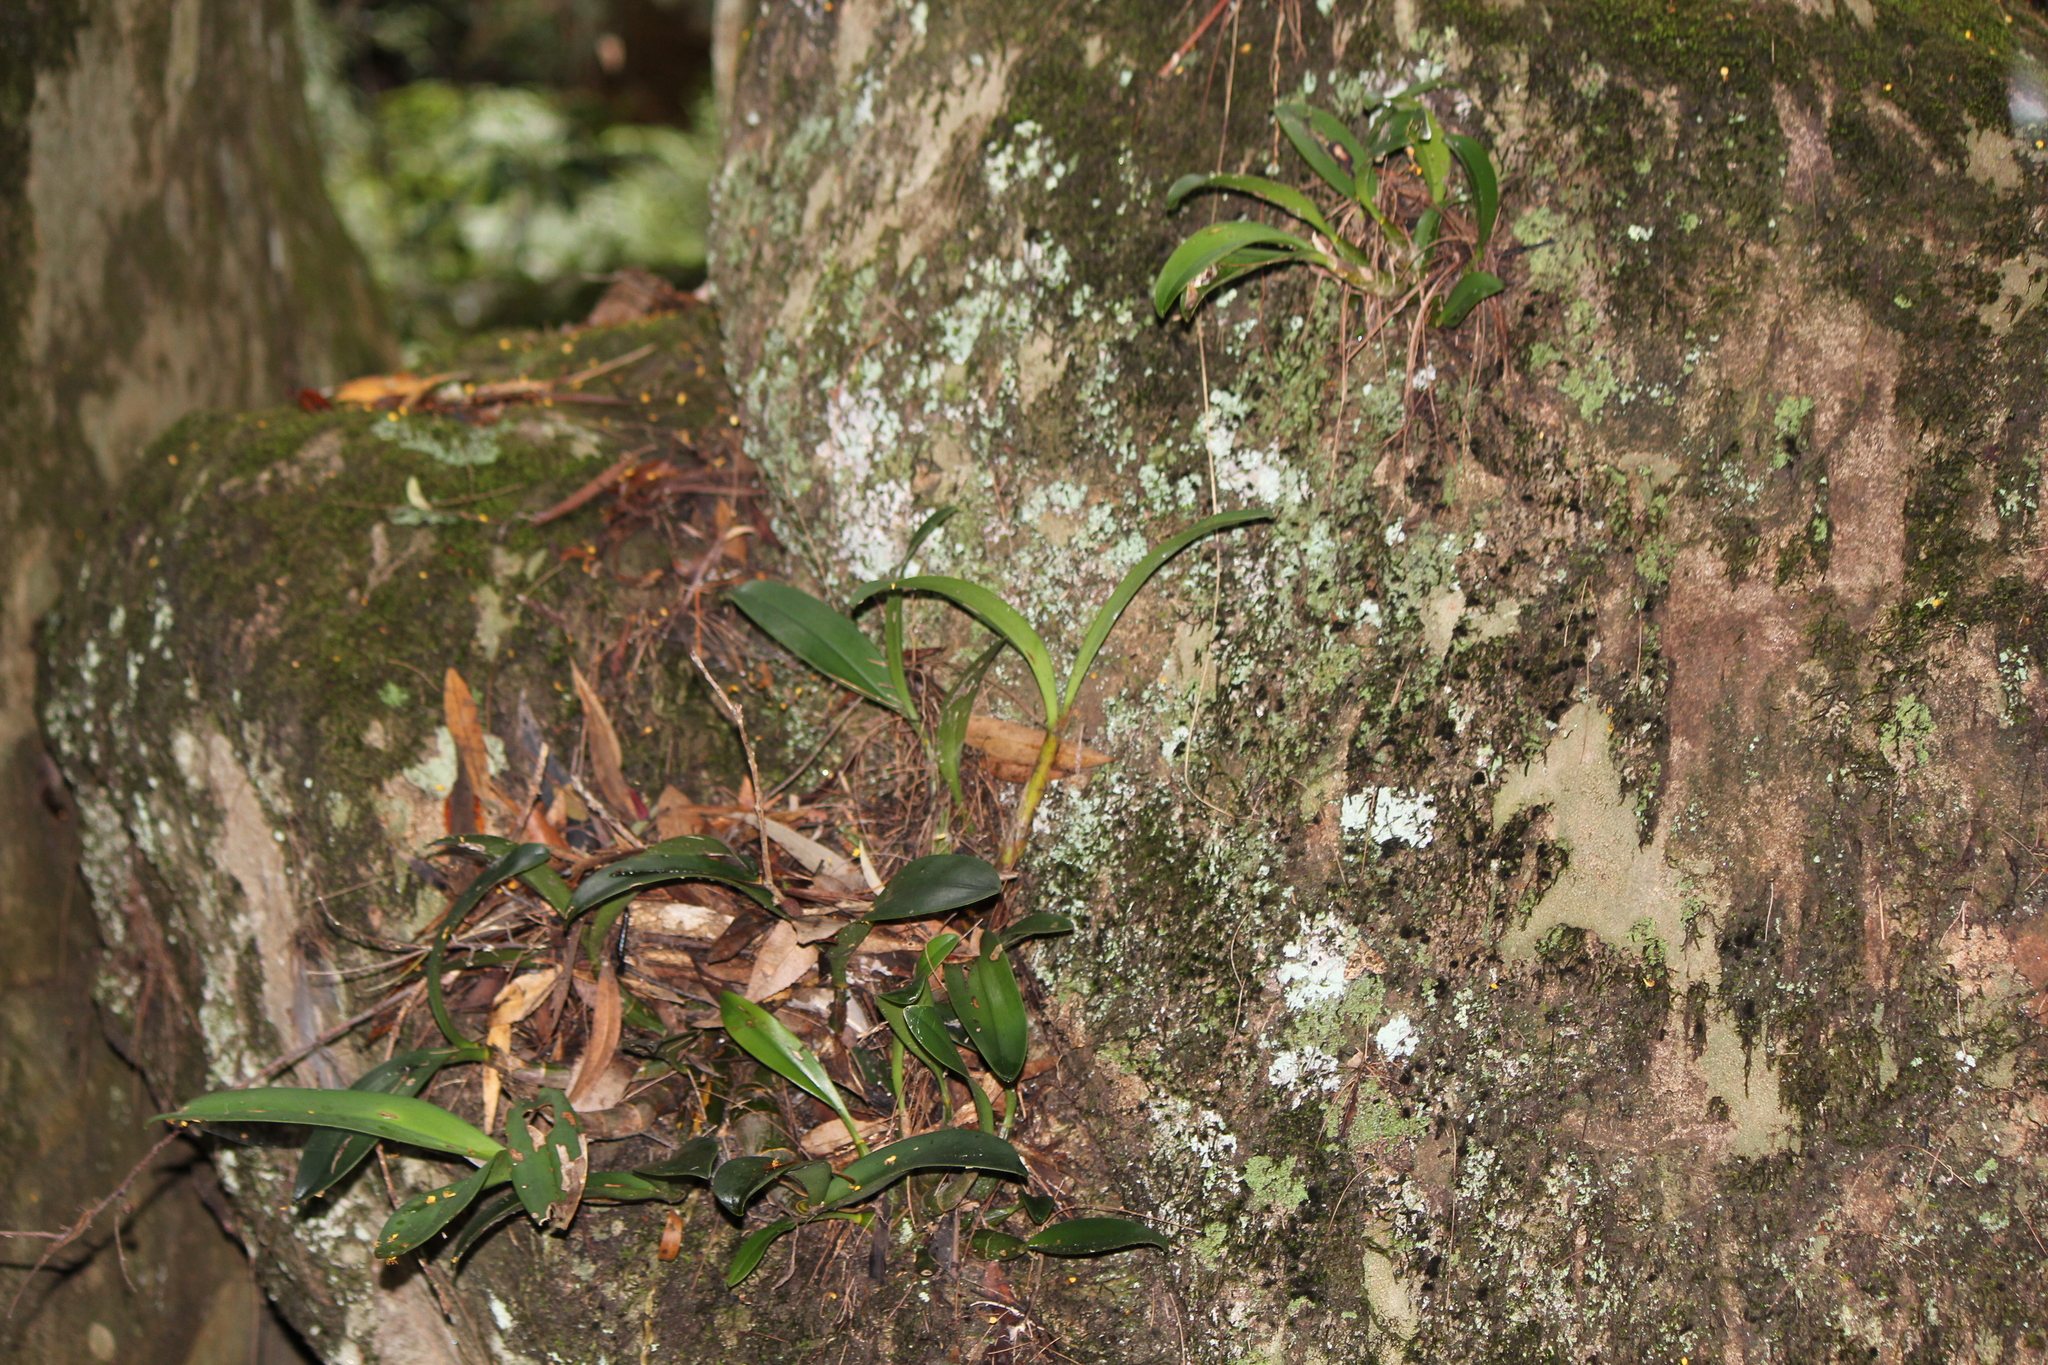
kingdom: Plantae
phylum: Tracheophyta
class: Liliopsida
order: Asparagales
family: Orchidaceae
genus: Dendrobium
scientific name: Dendrobium speciosum
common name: Rock-lily
